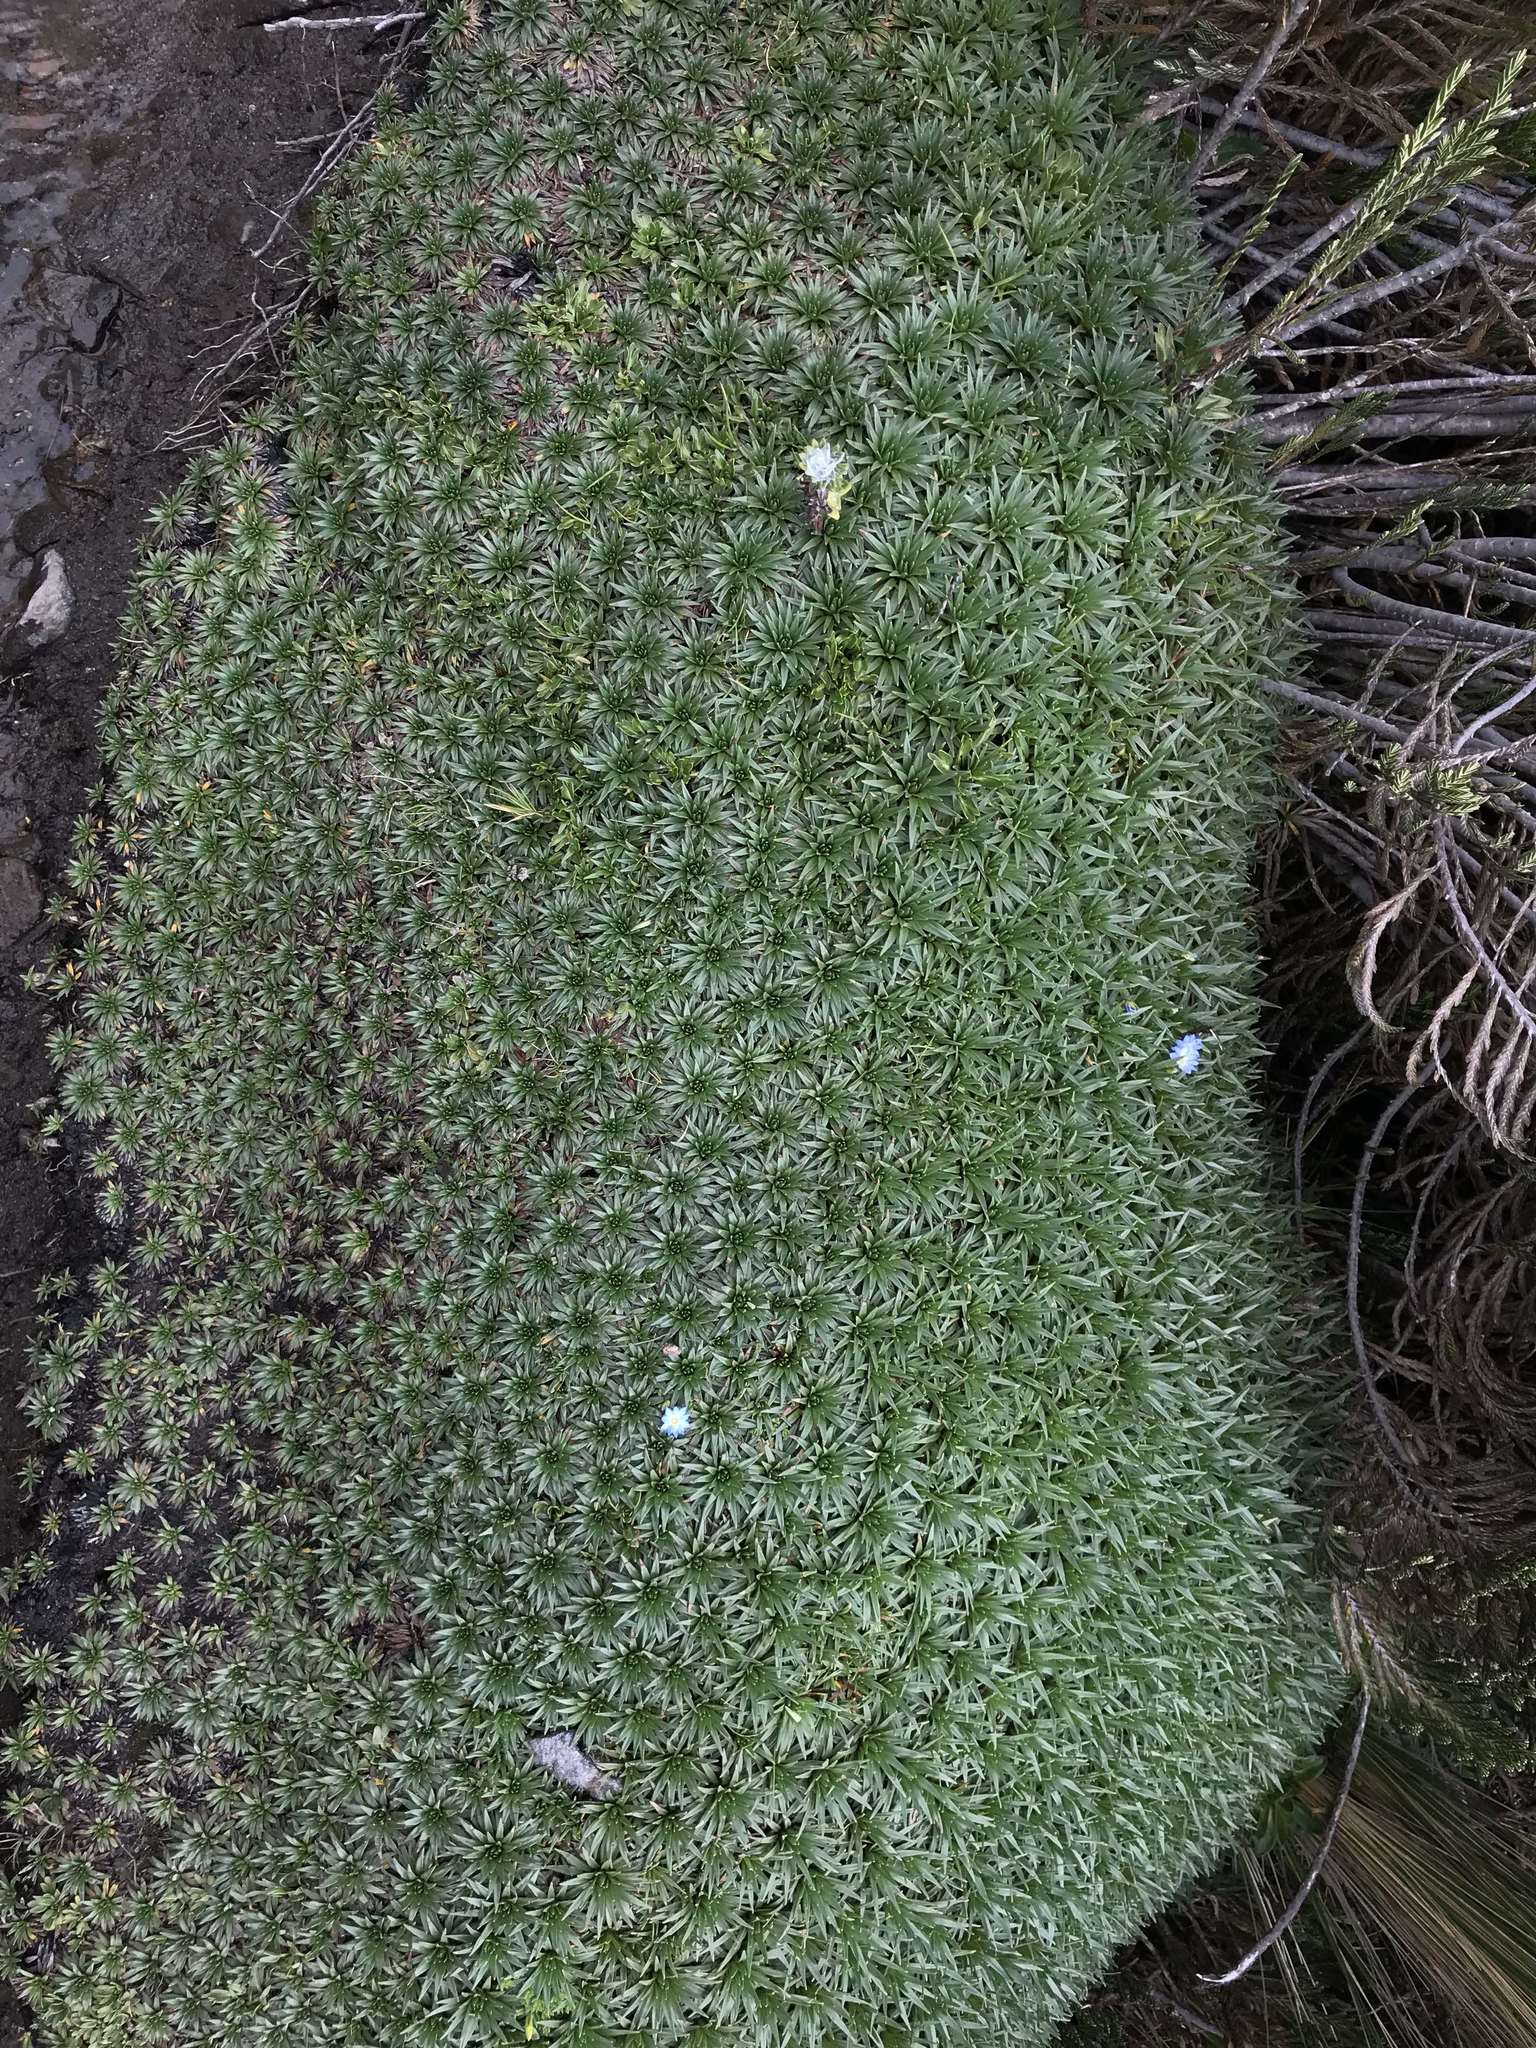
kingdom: Plantae
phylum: Tracheophyta
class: Magnoliopsida
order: Lamiales
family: Plantaginaceae
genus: Plantago
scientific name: Plantago rigida
